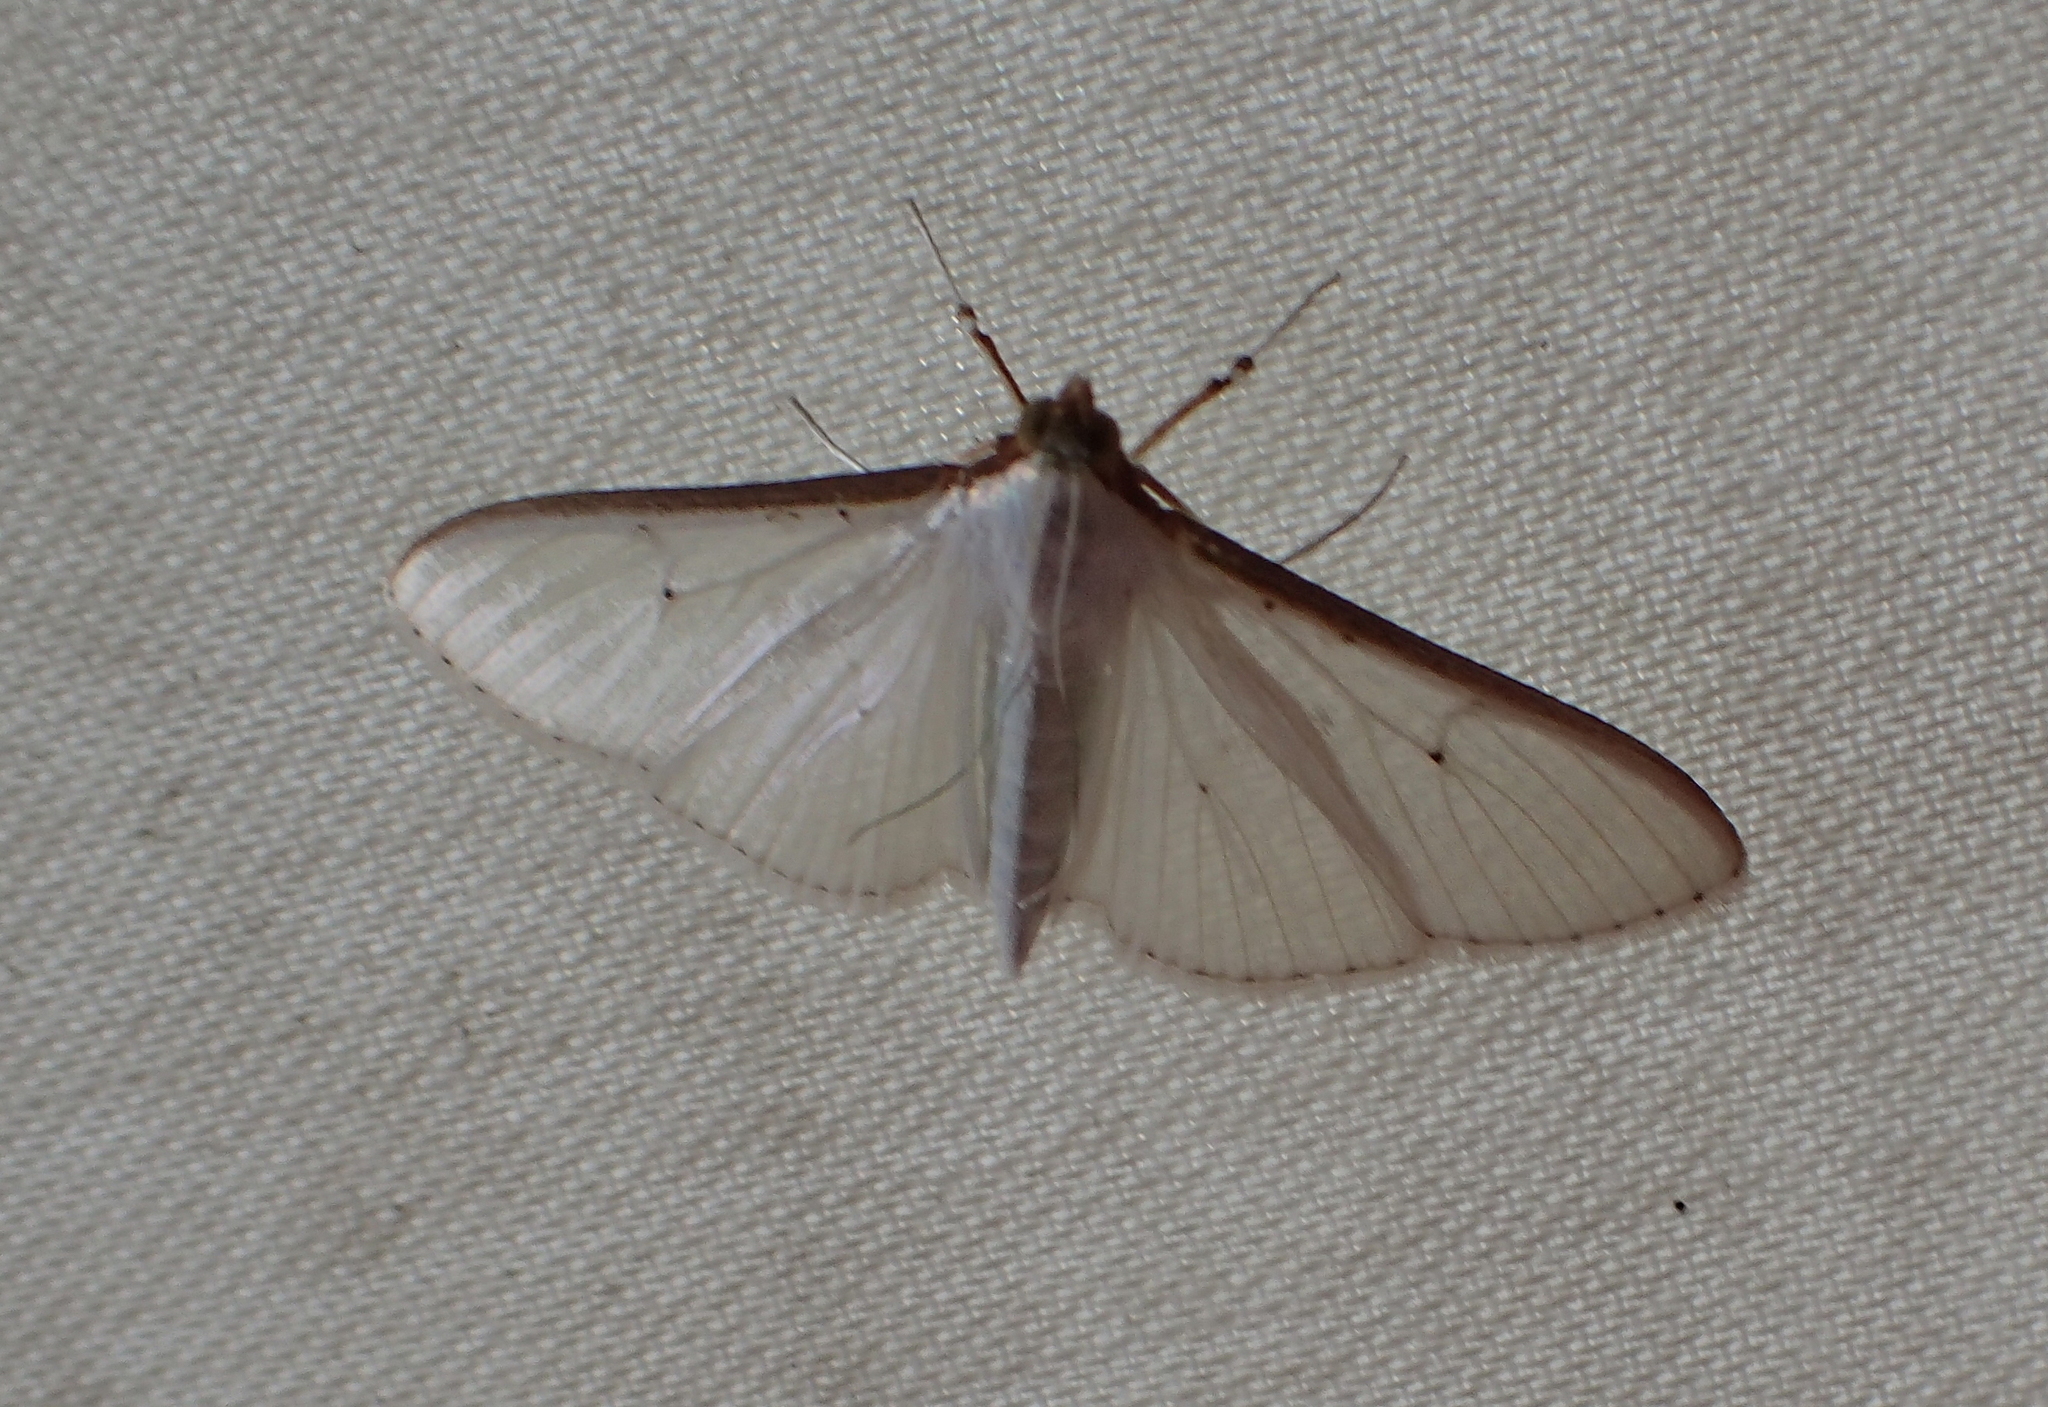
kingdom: Animalia
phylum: Arthropoda
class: Insecta
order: Lepidoptera
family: Crambidae
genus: Palpita
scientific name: Palpita vitrealis
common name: Olive-tree pearl
